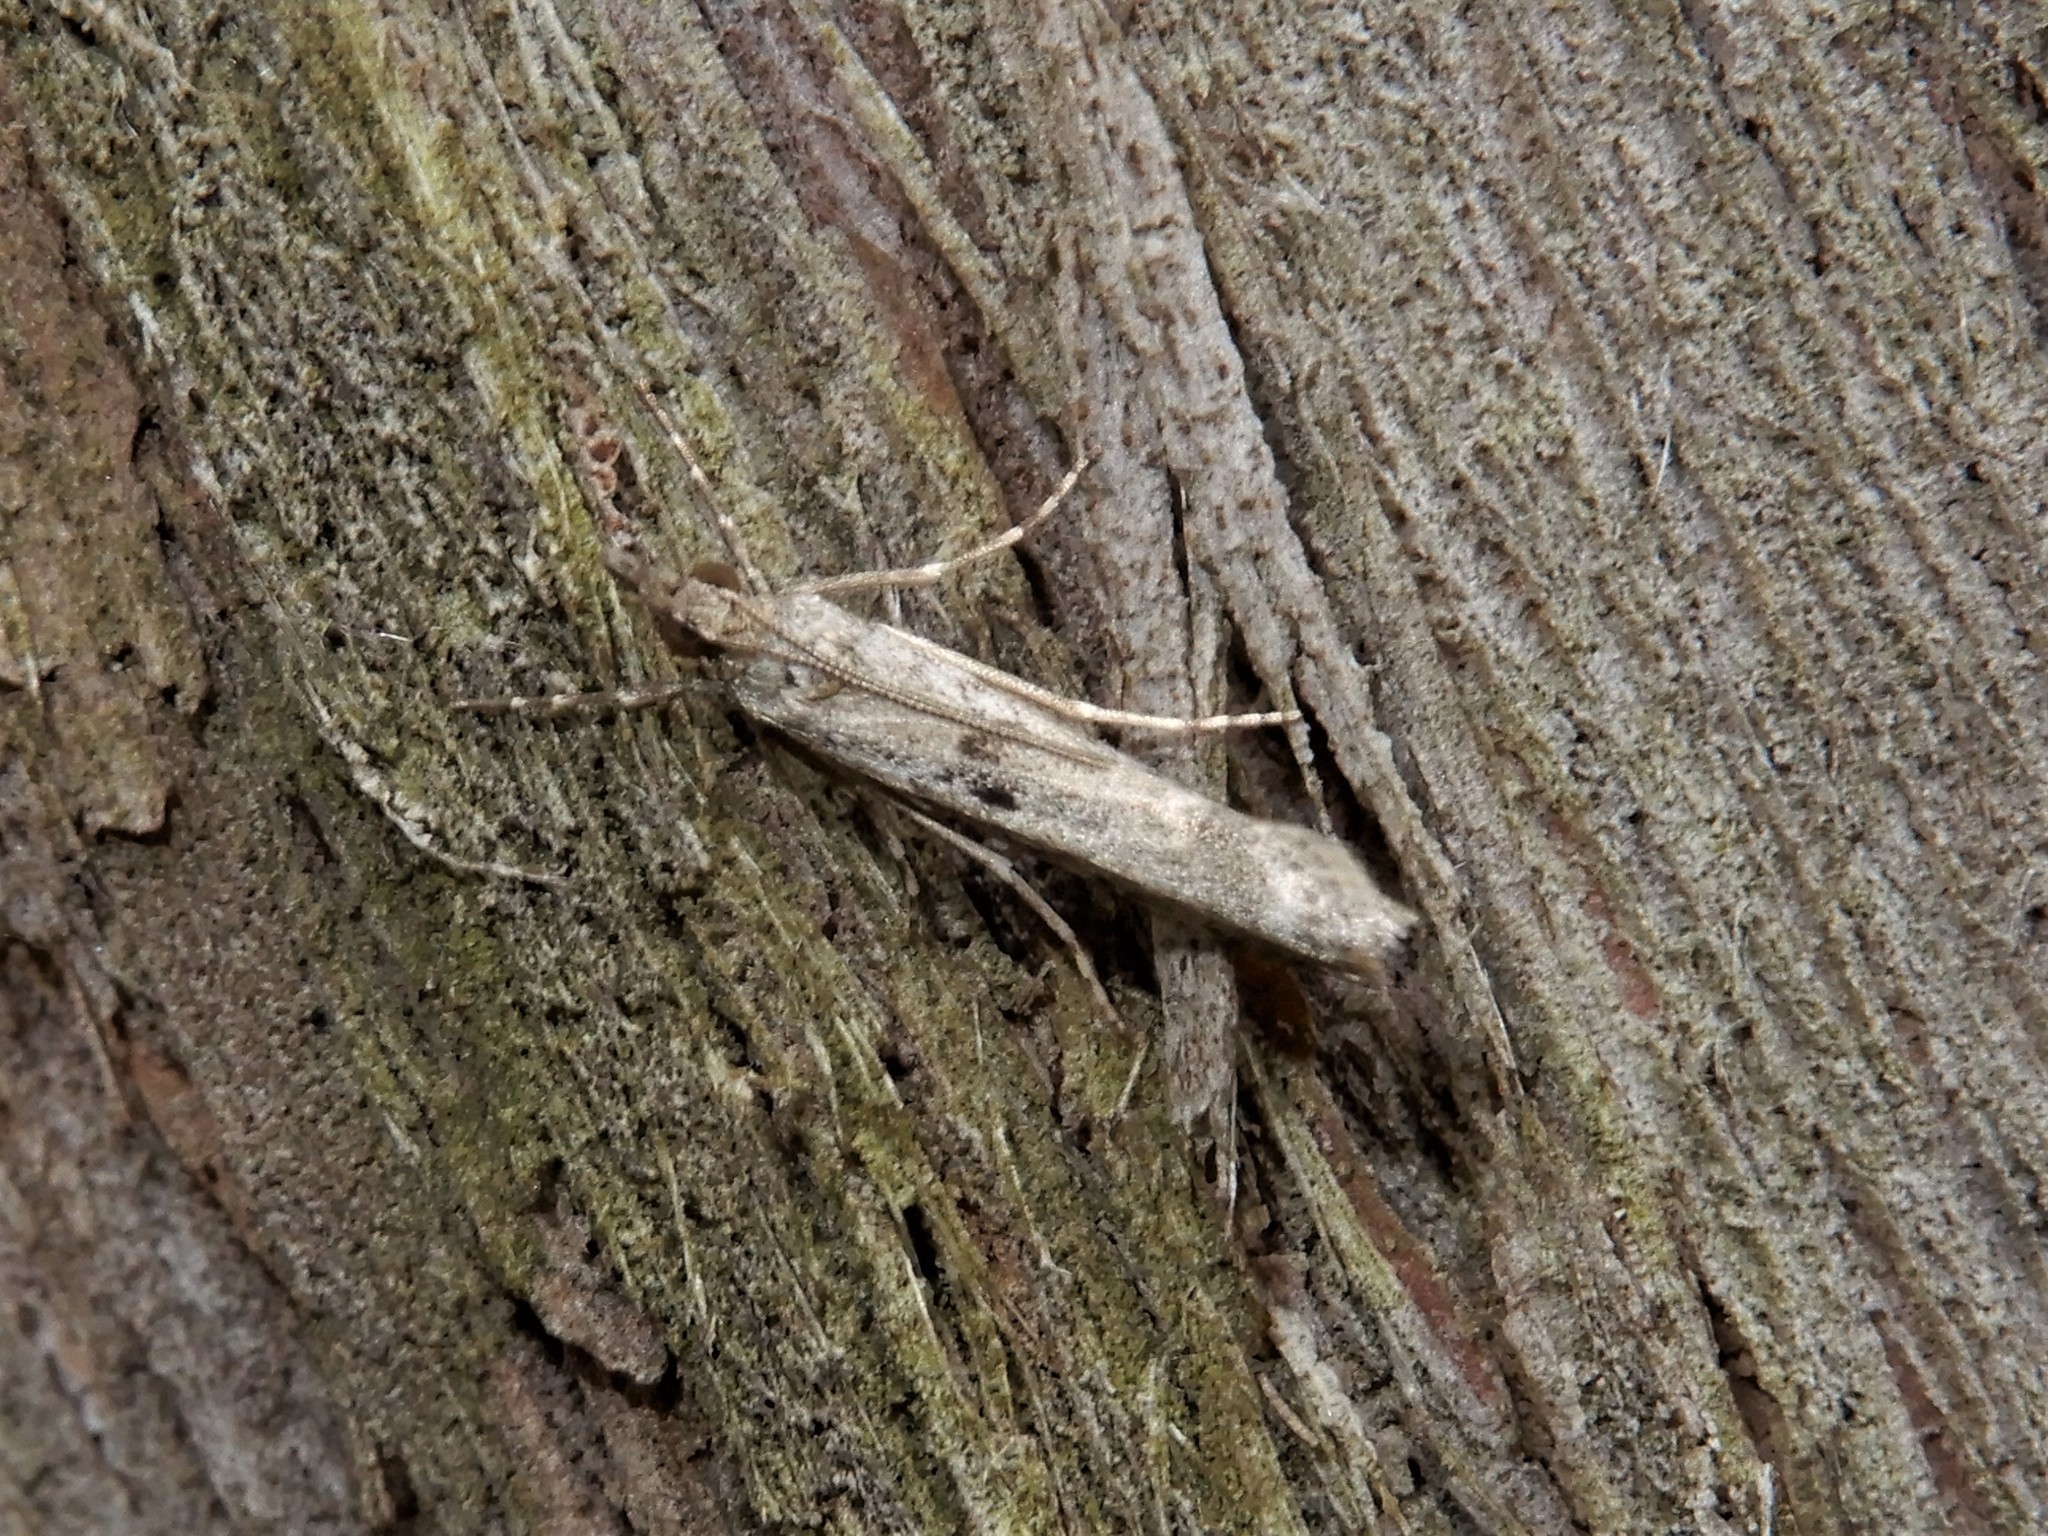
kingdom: Animalia
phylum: Arthropoda
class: Insecta
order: Lepidoptera
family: Crambidae
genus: Eudonia
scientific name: Eudonia leptalea
